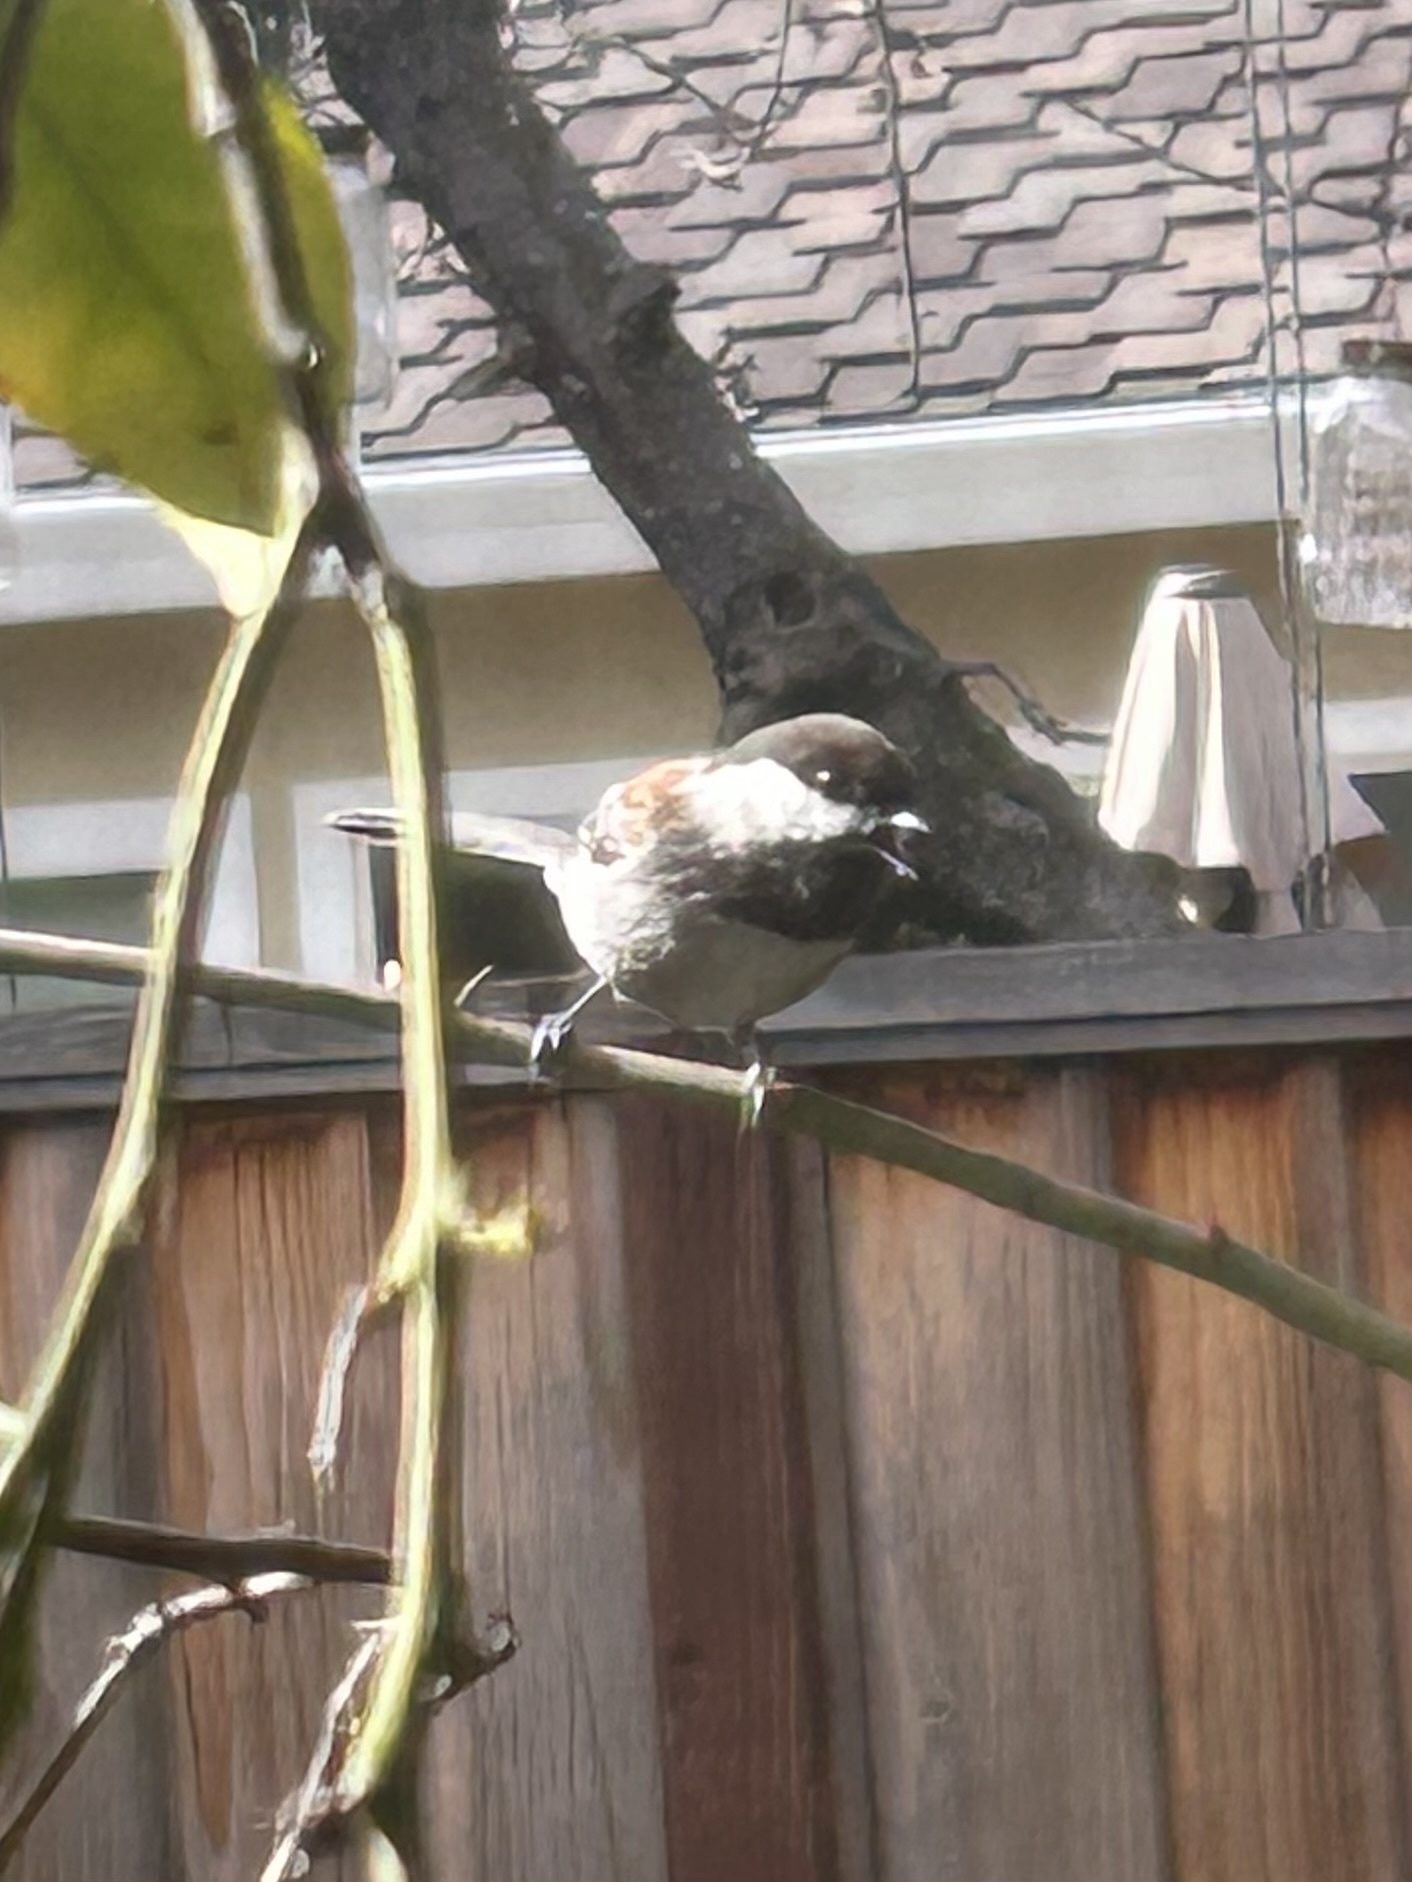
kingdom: Animalia
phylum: Chordata
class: Aves
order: Passeriformes
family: Paridae
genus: Poecile
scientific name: Poecile rufescens
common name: Chestnut-backed chickadee
